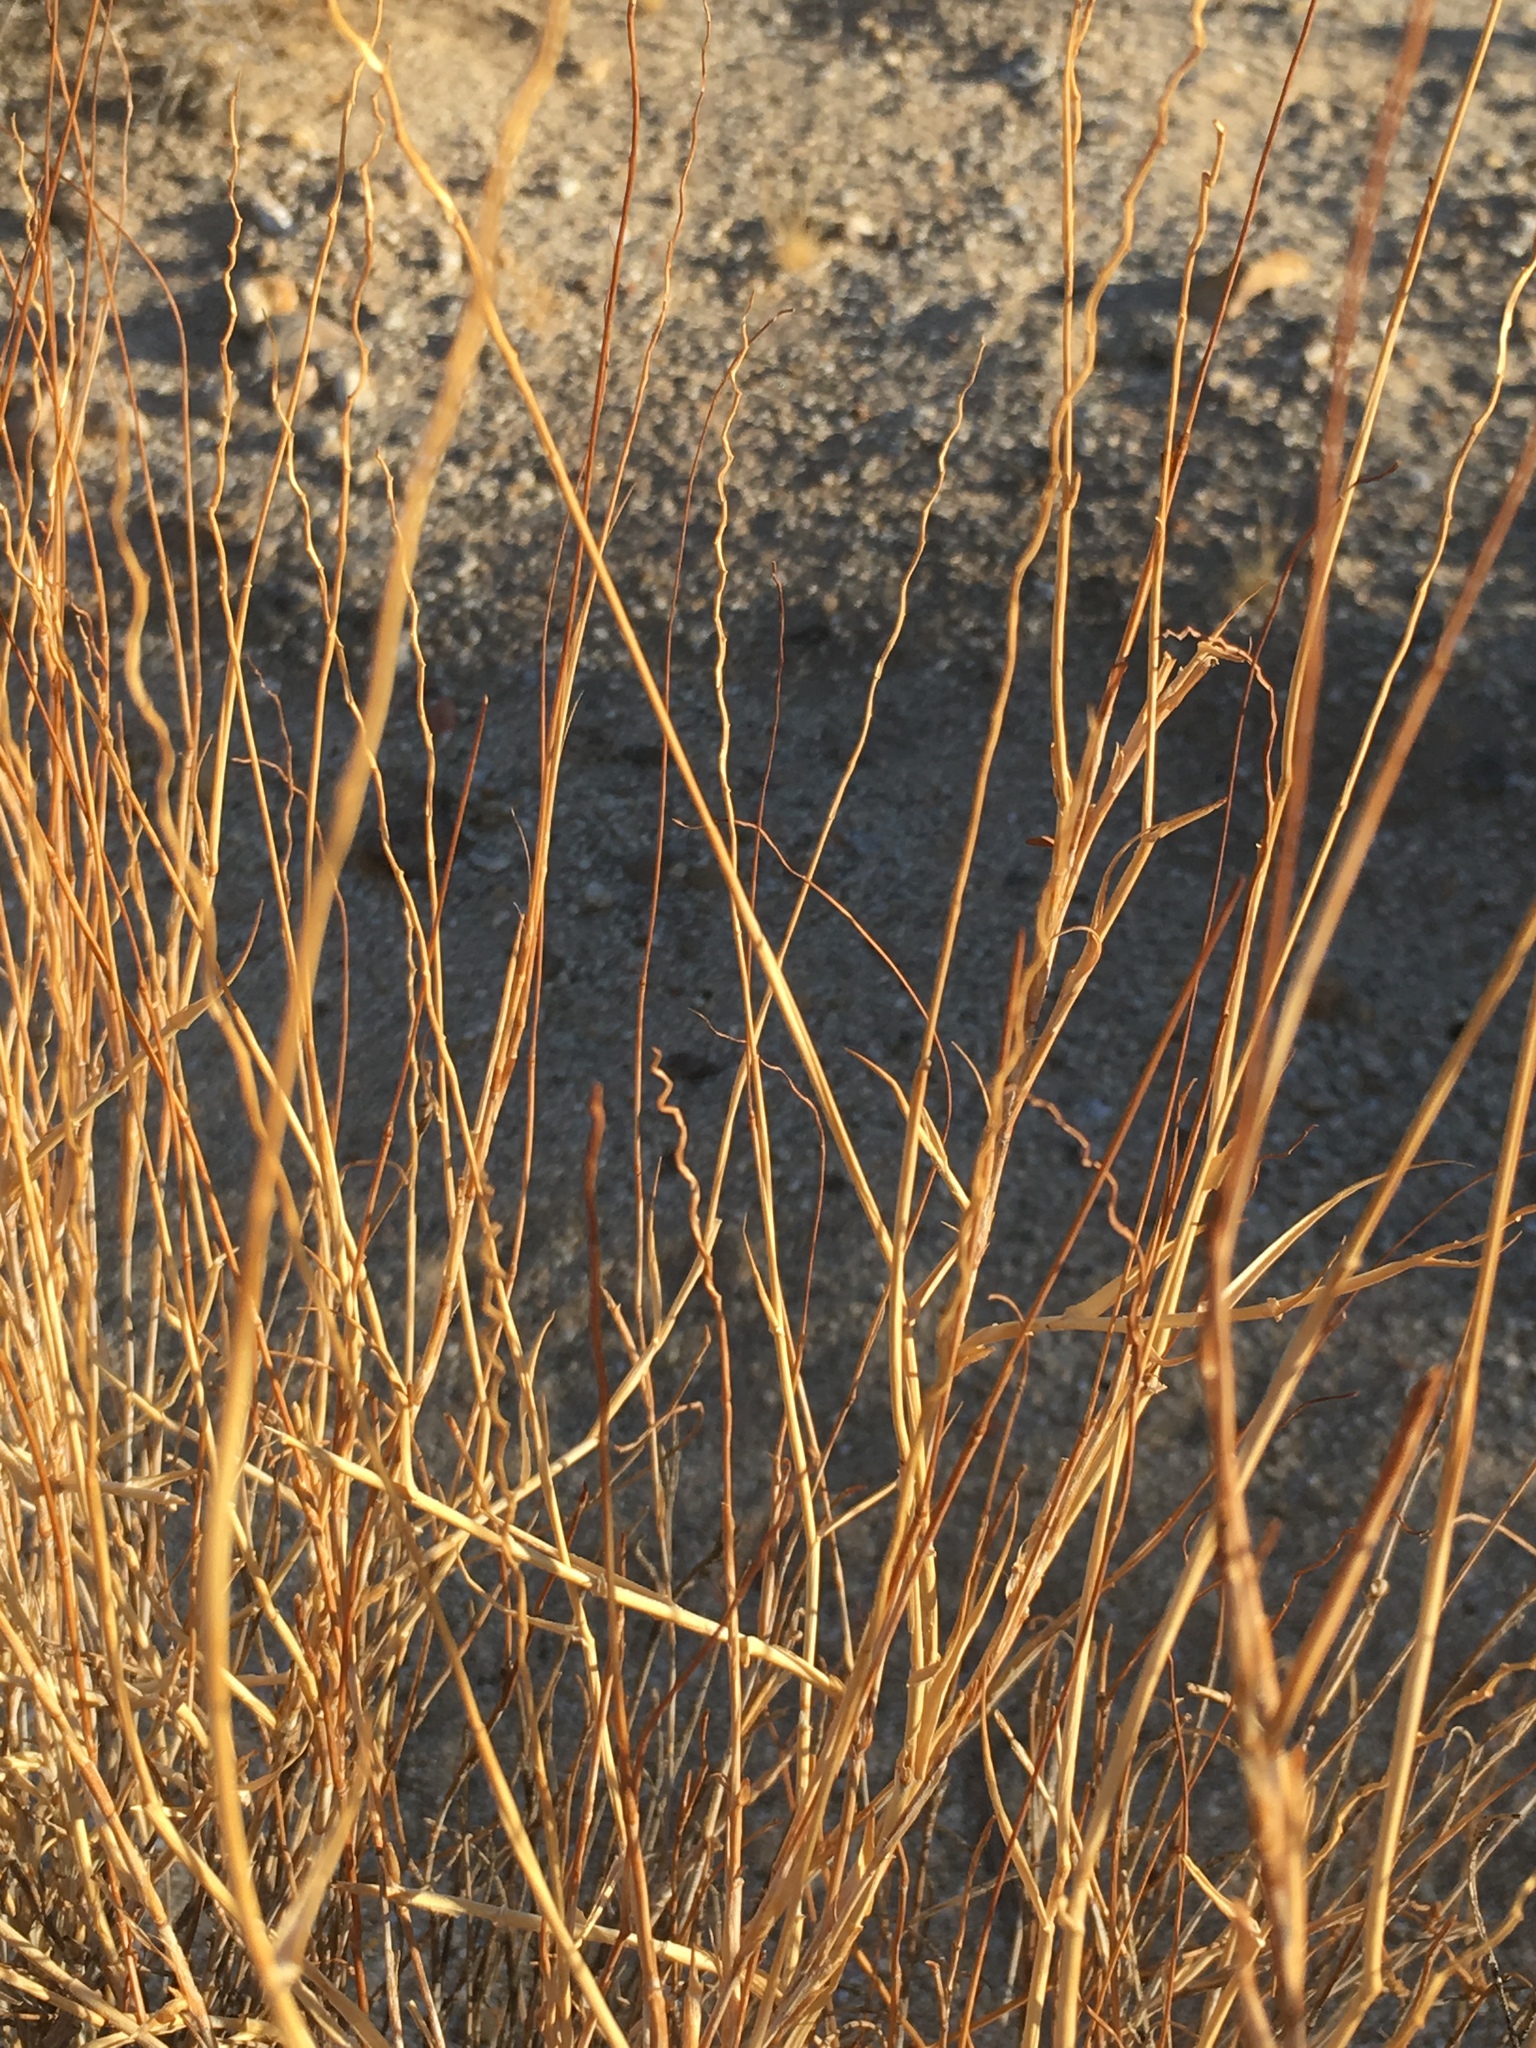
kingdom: Plantae
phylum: Tracheophyta
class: Liliopsida
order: Poales
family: Poaceae
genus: Hilaria
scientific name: Hilaria rigida
